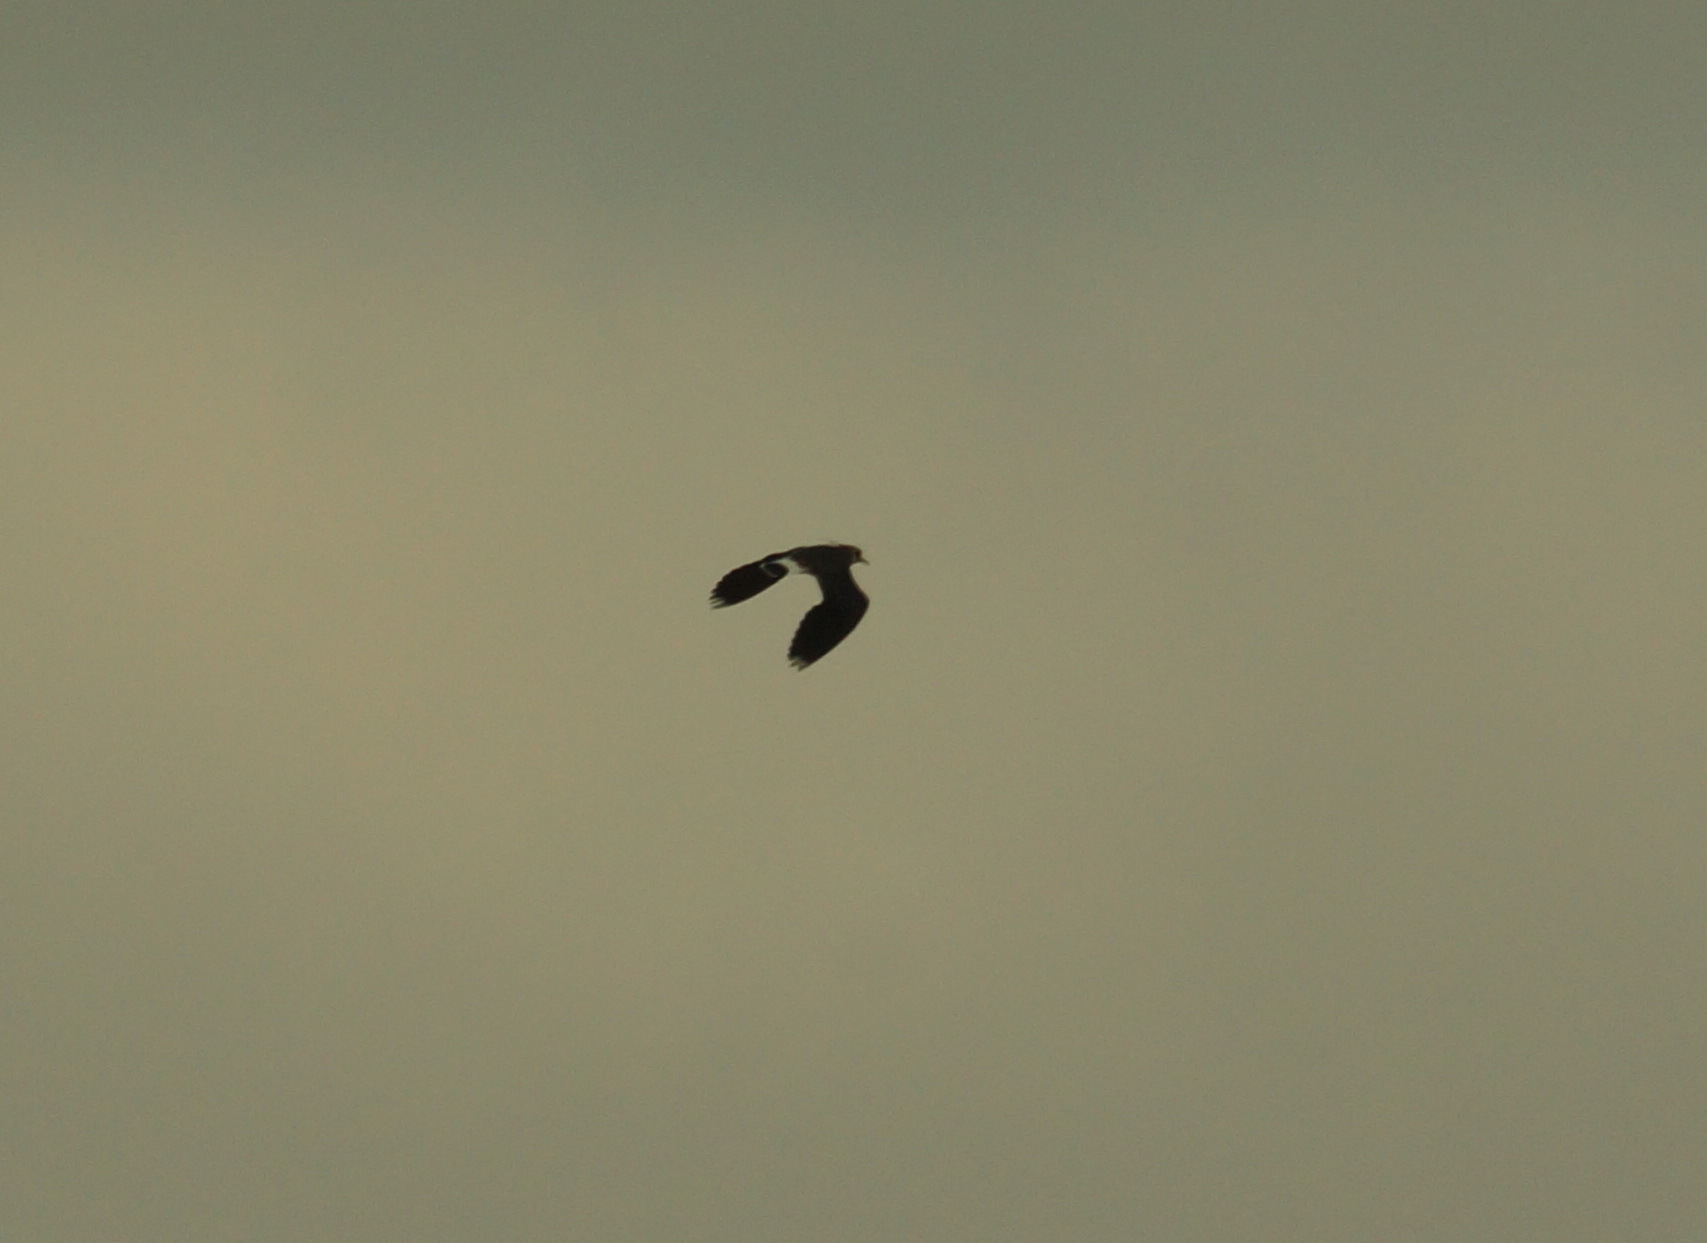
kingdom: Animalia
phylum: Chordata
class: Aves
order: Charadriiformes
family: Charadriidae
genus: Vanellus
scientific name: Vanellus vanellus
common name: Northern lapwing
